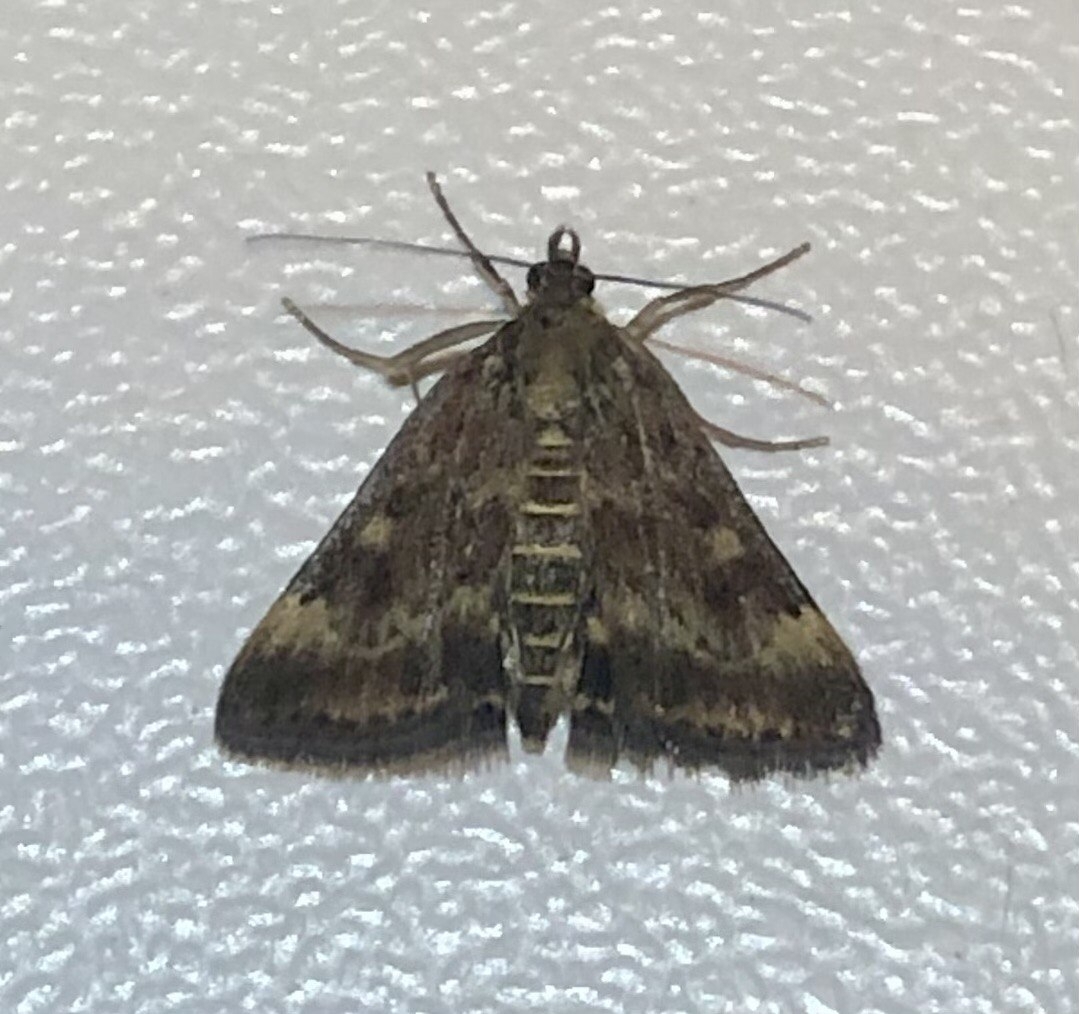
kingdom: Animalia
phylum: Arthropoda
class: Insecta
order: Lepidoptera
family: Crambidae
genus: Pyrausta
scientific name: Pyrausta despicata
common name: Straw-barred pearl
